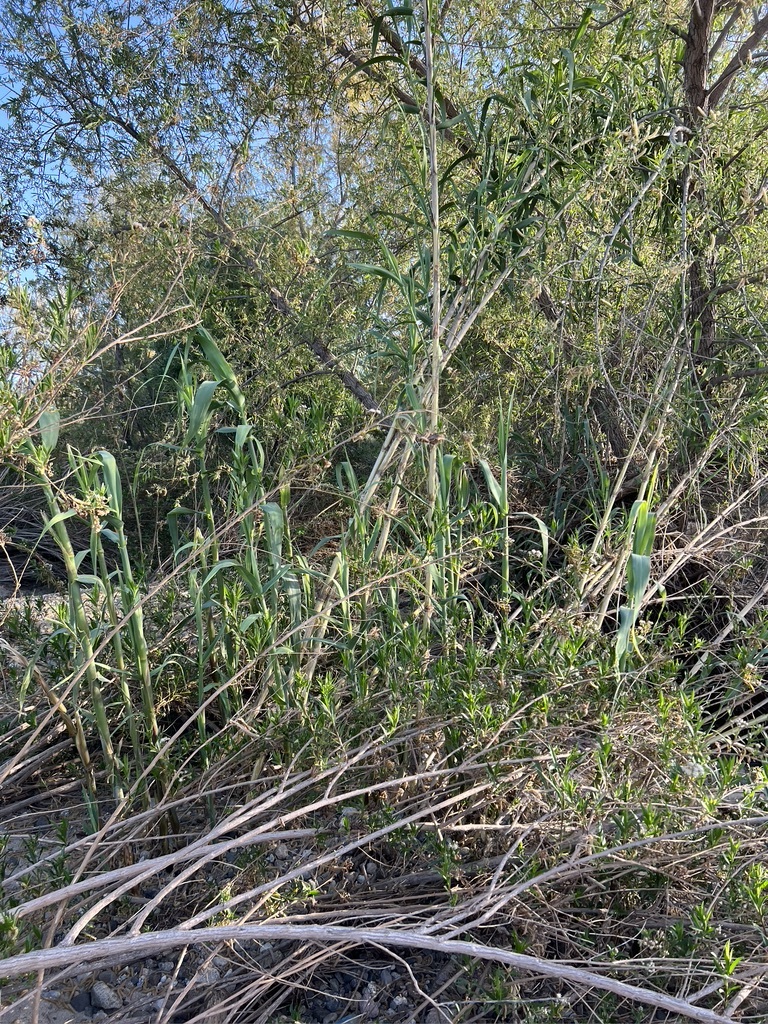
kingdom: Plantae
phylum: Tracheophyta
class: Liliopsida
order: Poales
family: Poaceae
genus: Arundo
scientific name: Arundo donax
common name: Giant reed
